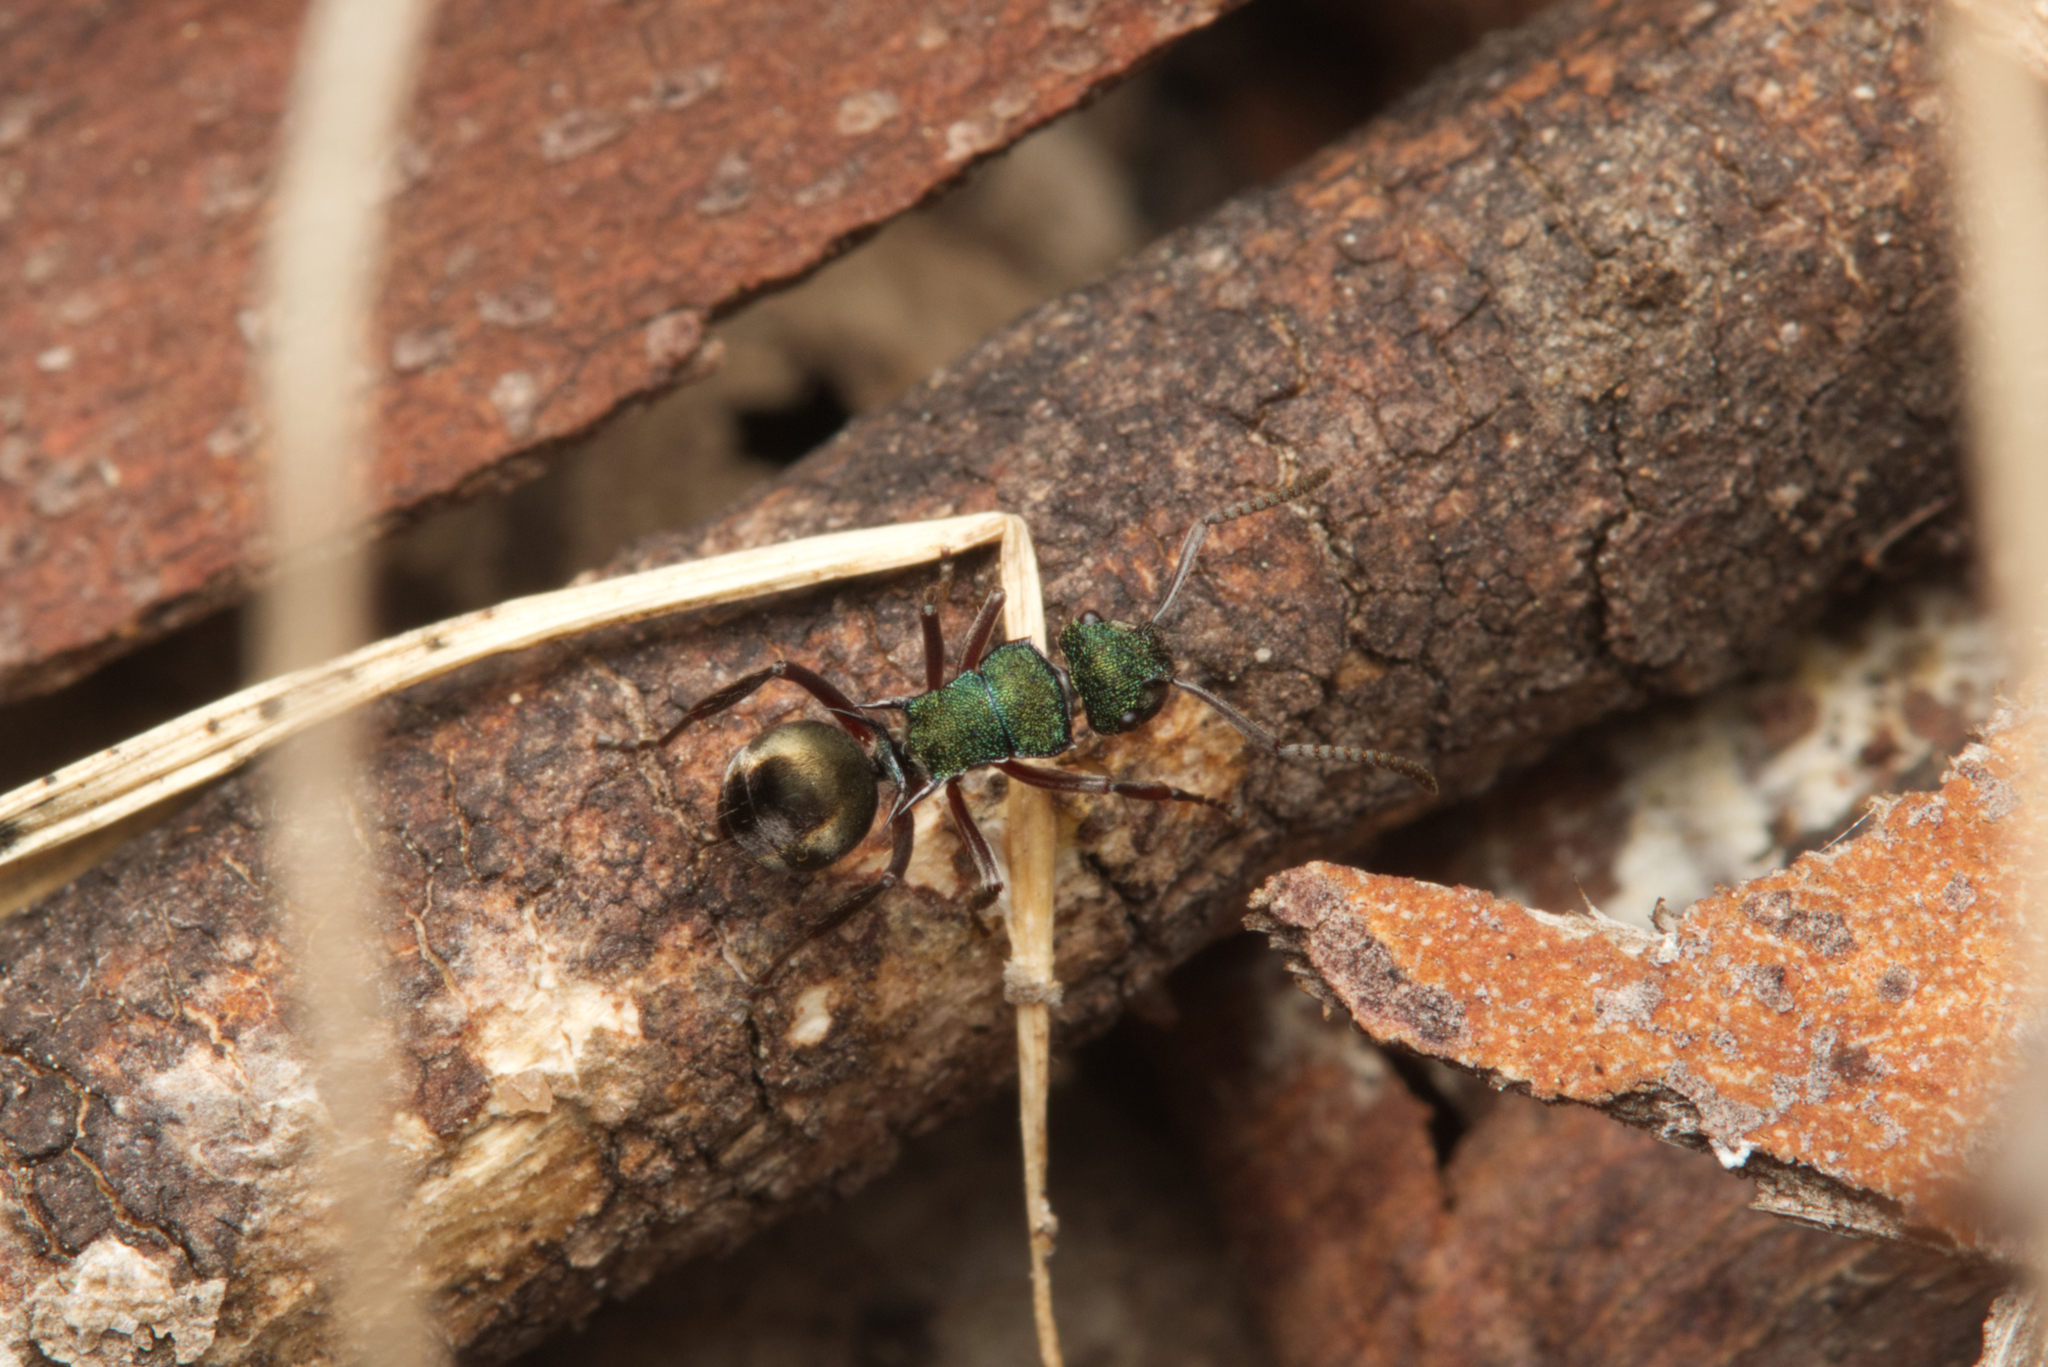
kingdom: Animalia
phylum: Arthropoda
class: Insecta
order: Hymenoptera
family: Formicidae
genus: Polyrhachis
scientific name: Polyrhachis hookeri
